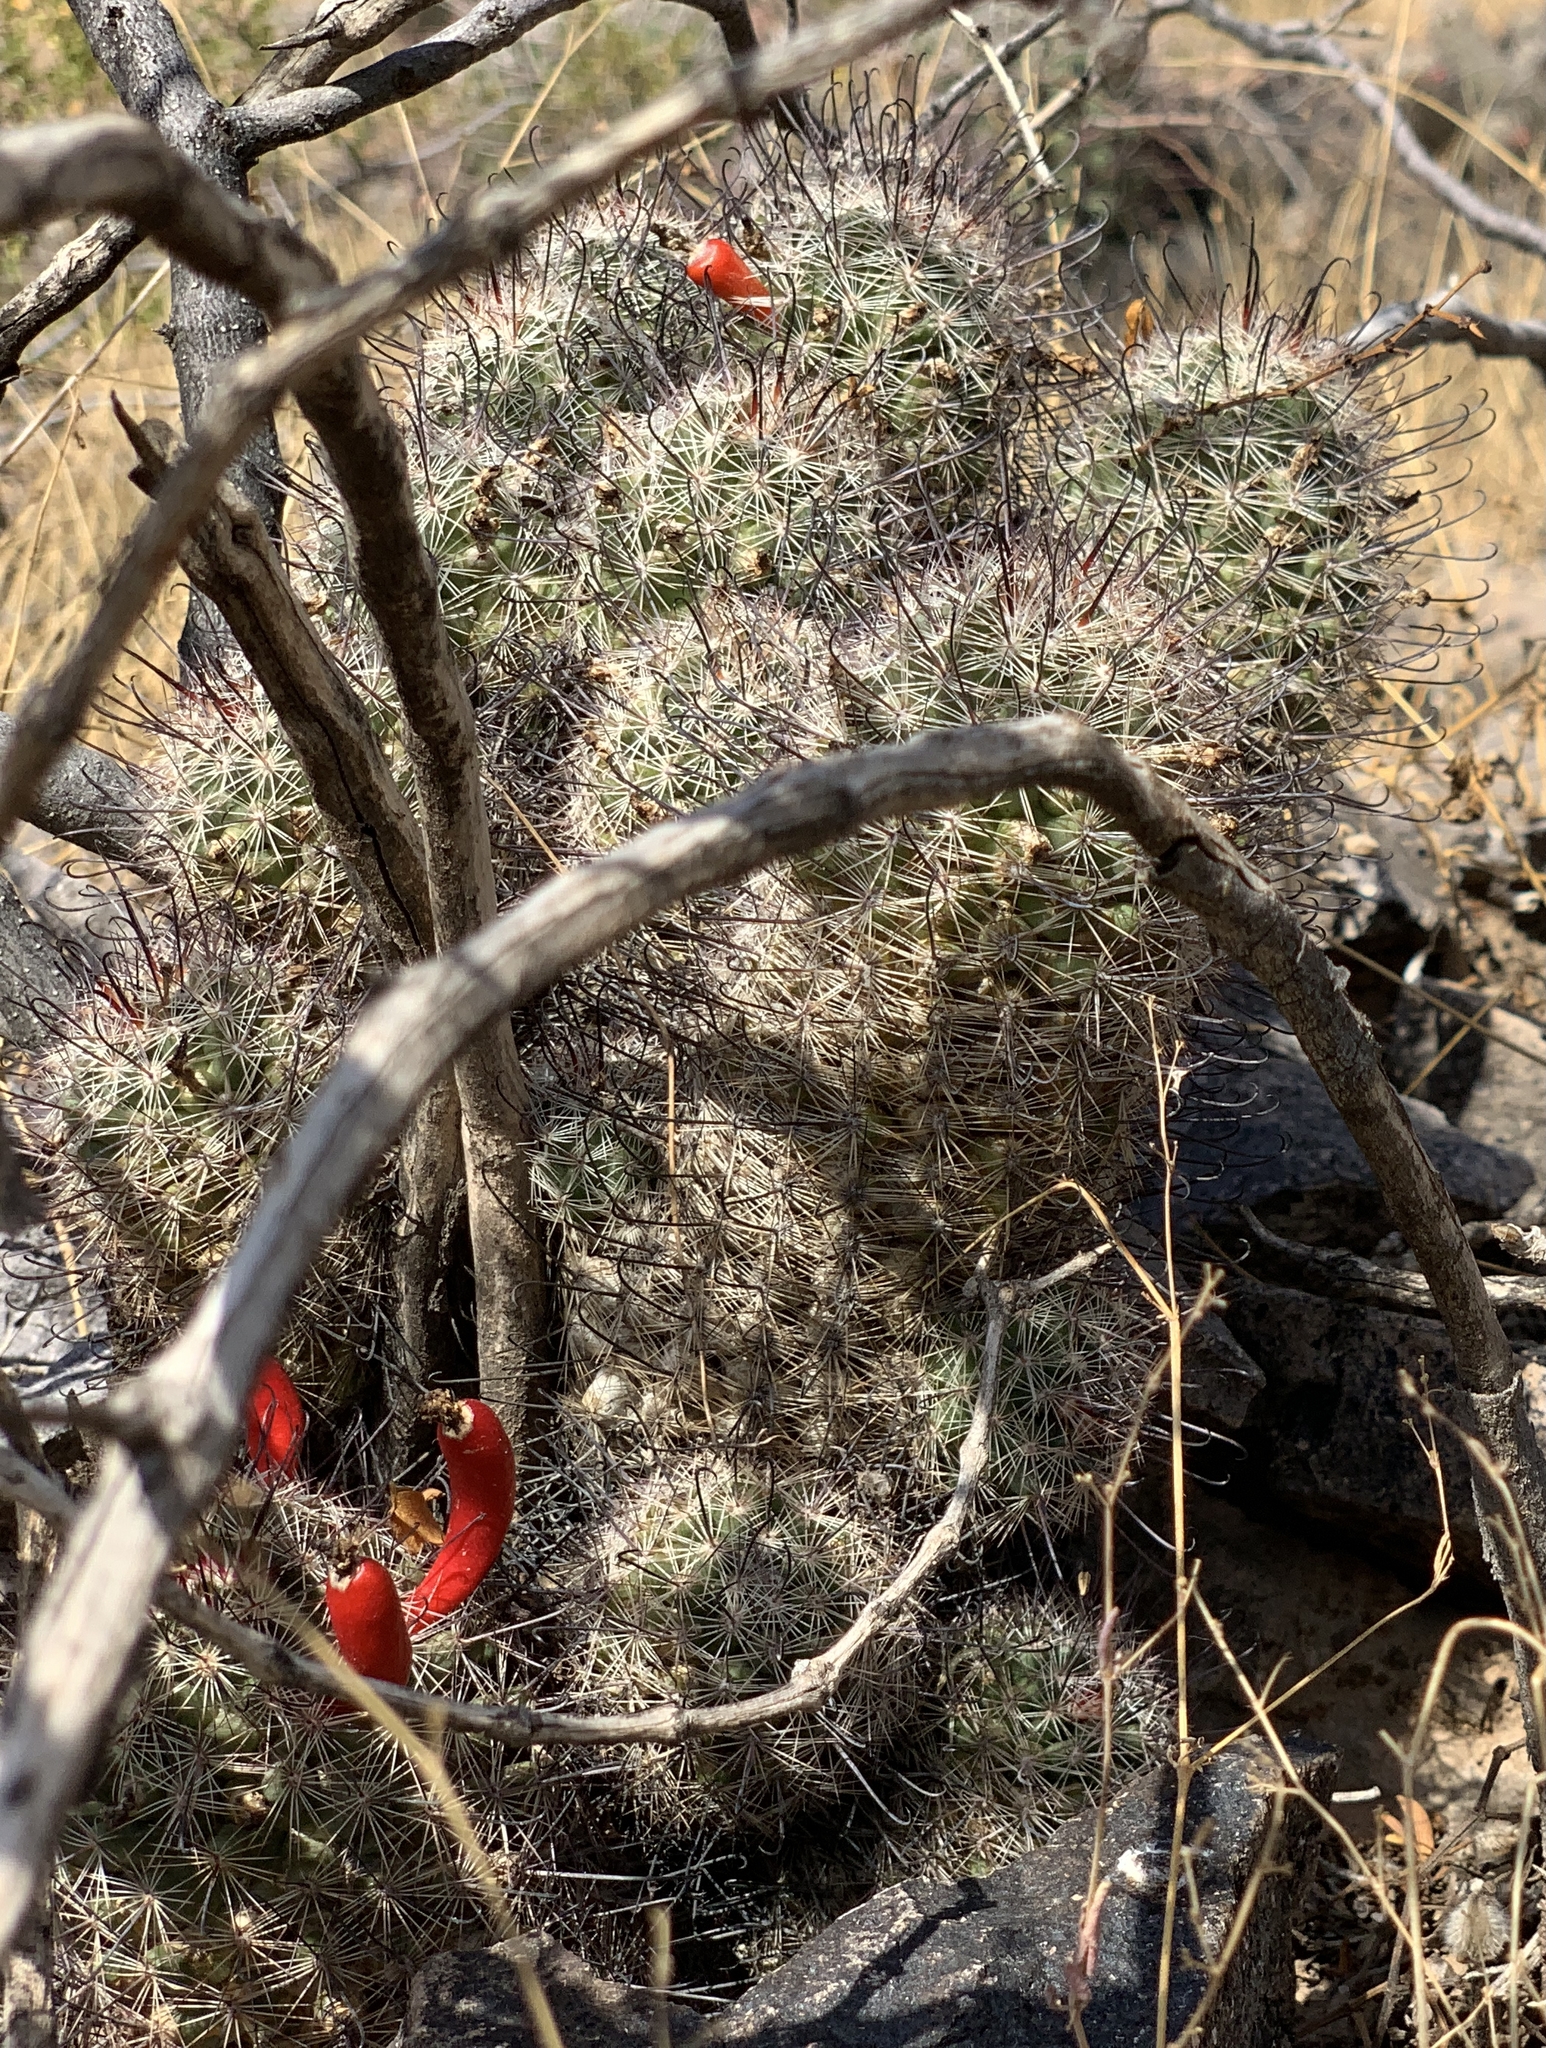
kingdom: Plantae
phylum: Tracheophyta
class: Magnoliopsida
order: Caryophyllales
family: Cactaceae
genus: Cochemiea
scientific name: Cochemiea grahamii
